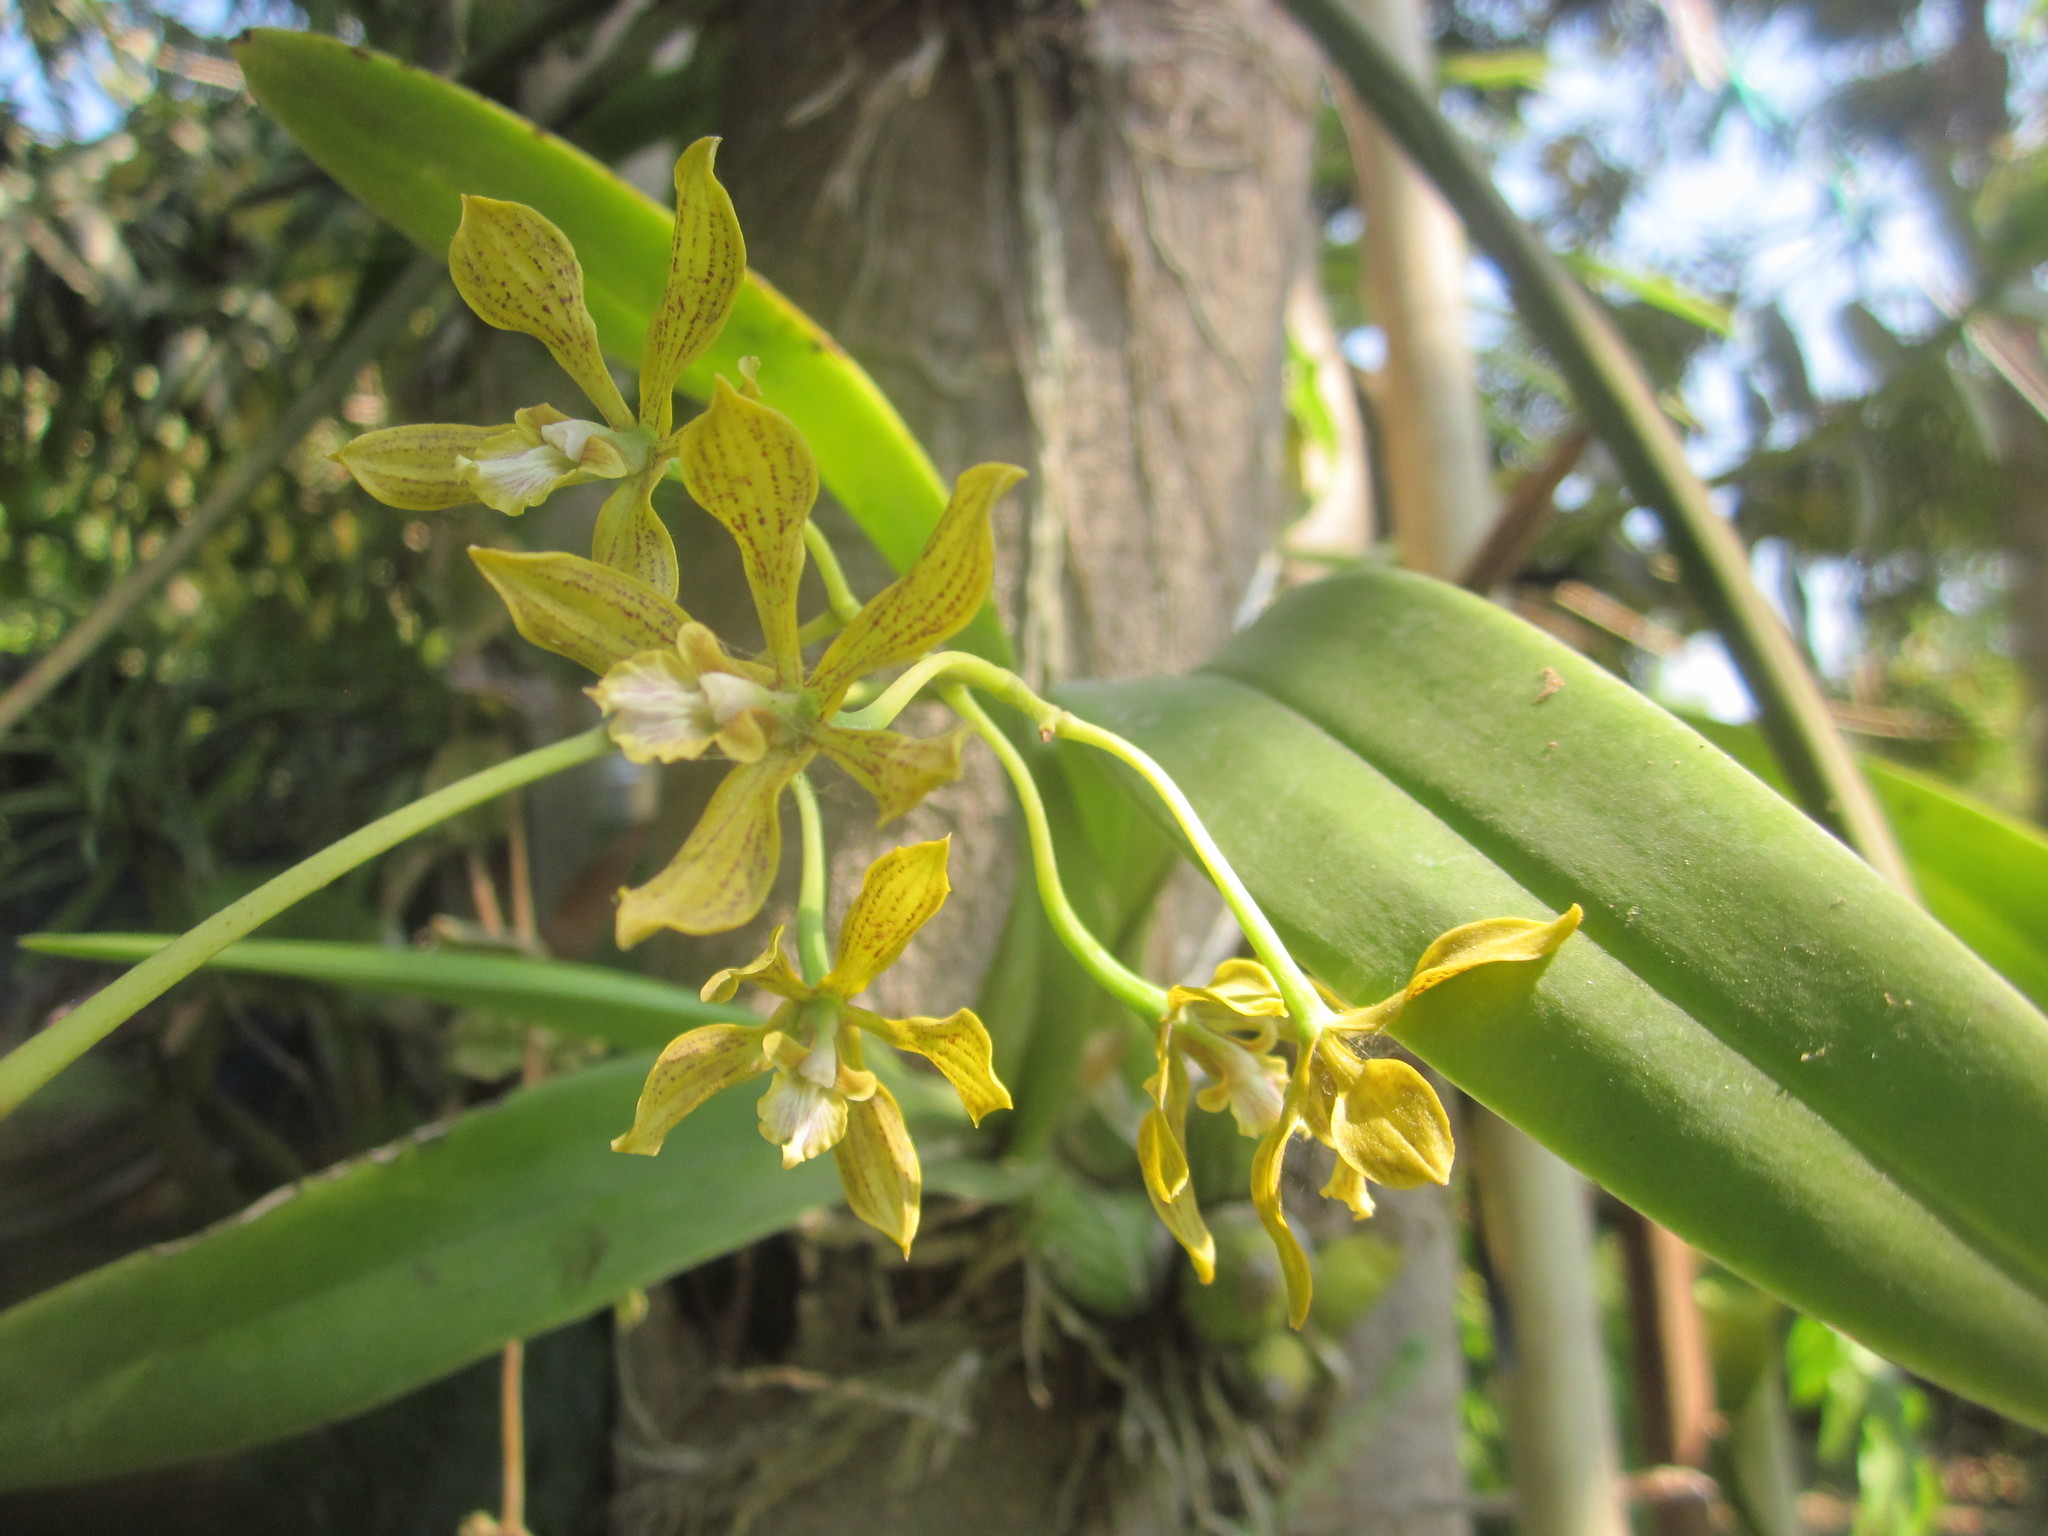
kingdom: Plantae
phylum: Tracheophyta
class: Liliopsida
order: Asparagales
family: Orchidaceae
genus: Encyclia
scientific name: Encyclia rzedowskiana
